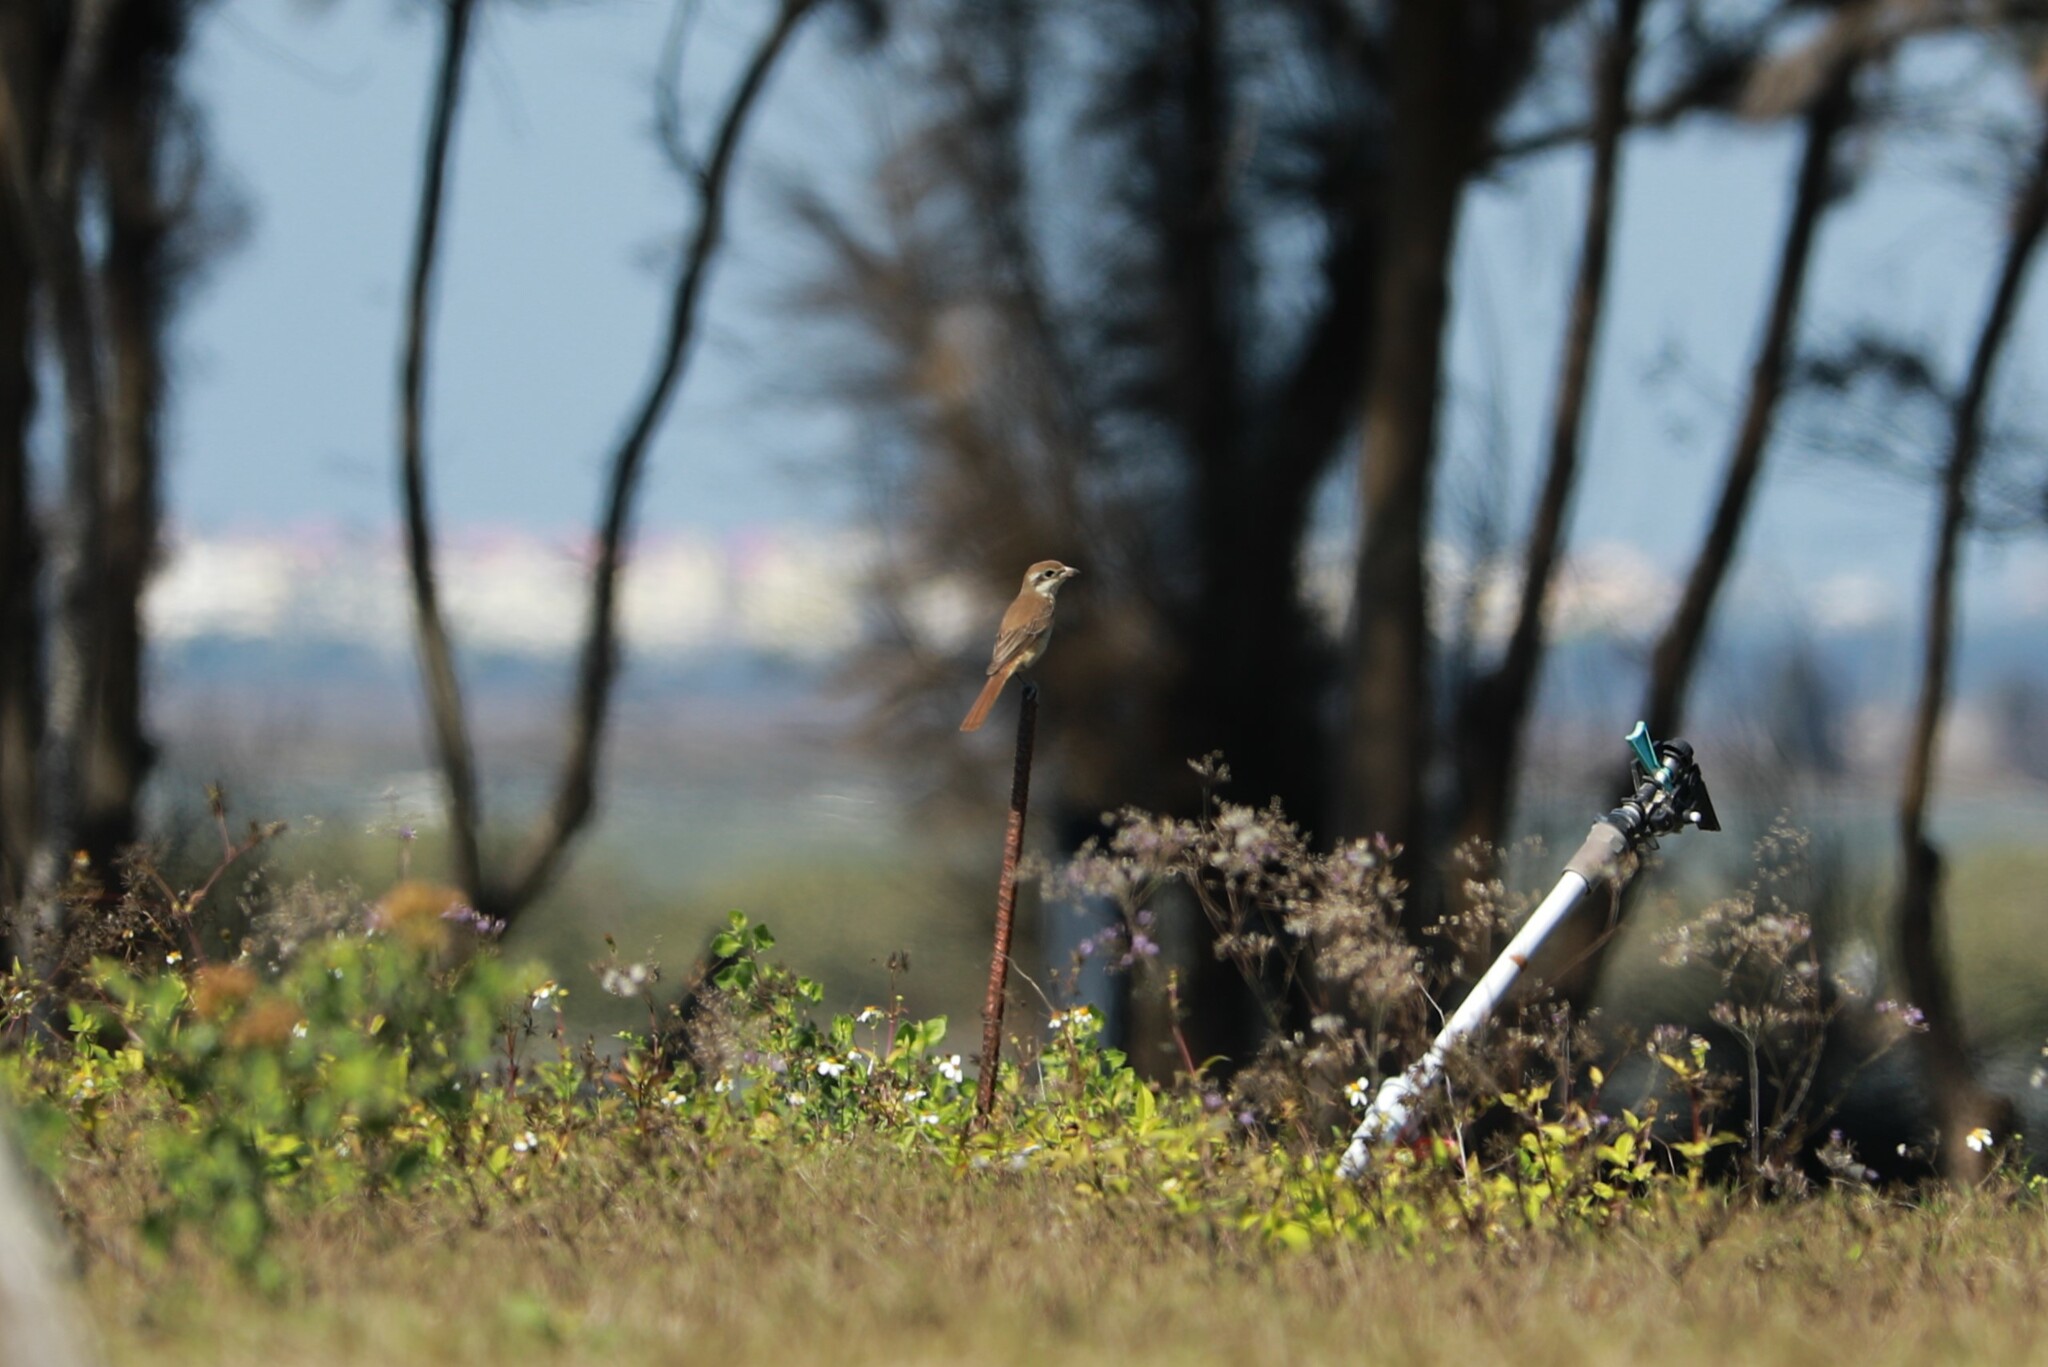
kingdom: Animalia
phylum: Chordata
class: Aves
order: Passeriformes
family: Laniidae
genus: Lanius
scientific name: Lanius cristatus
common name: Brown shrike
